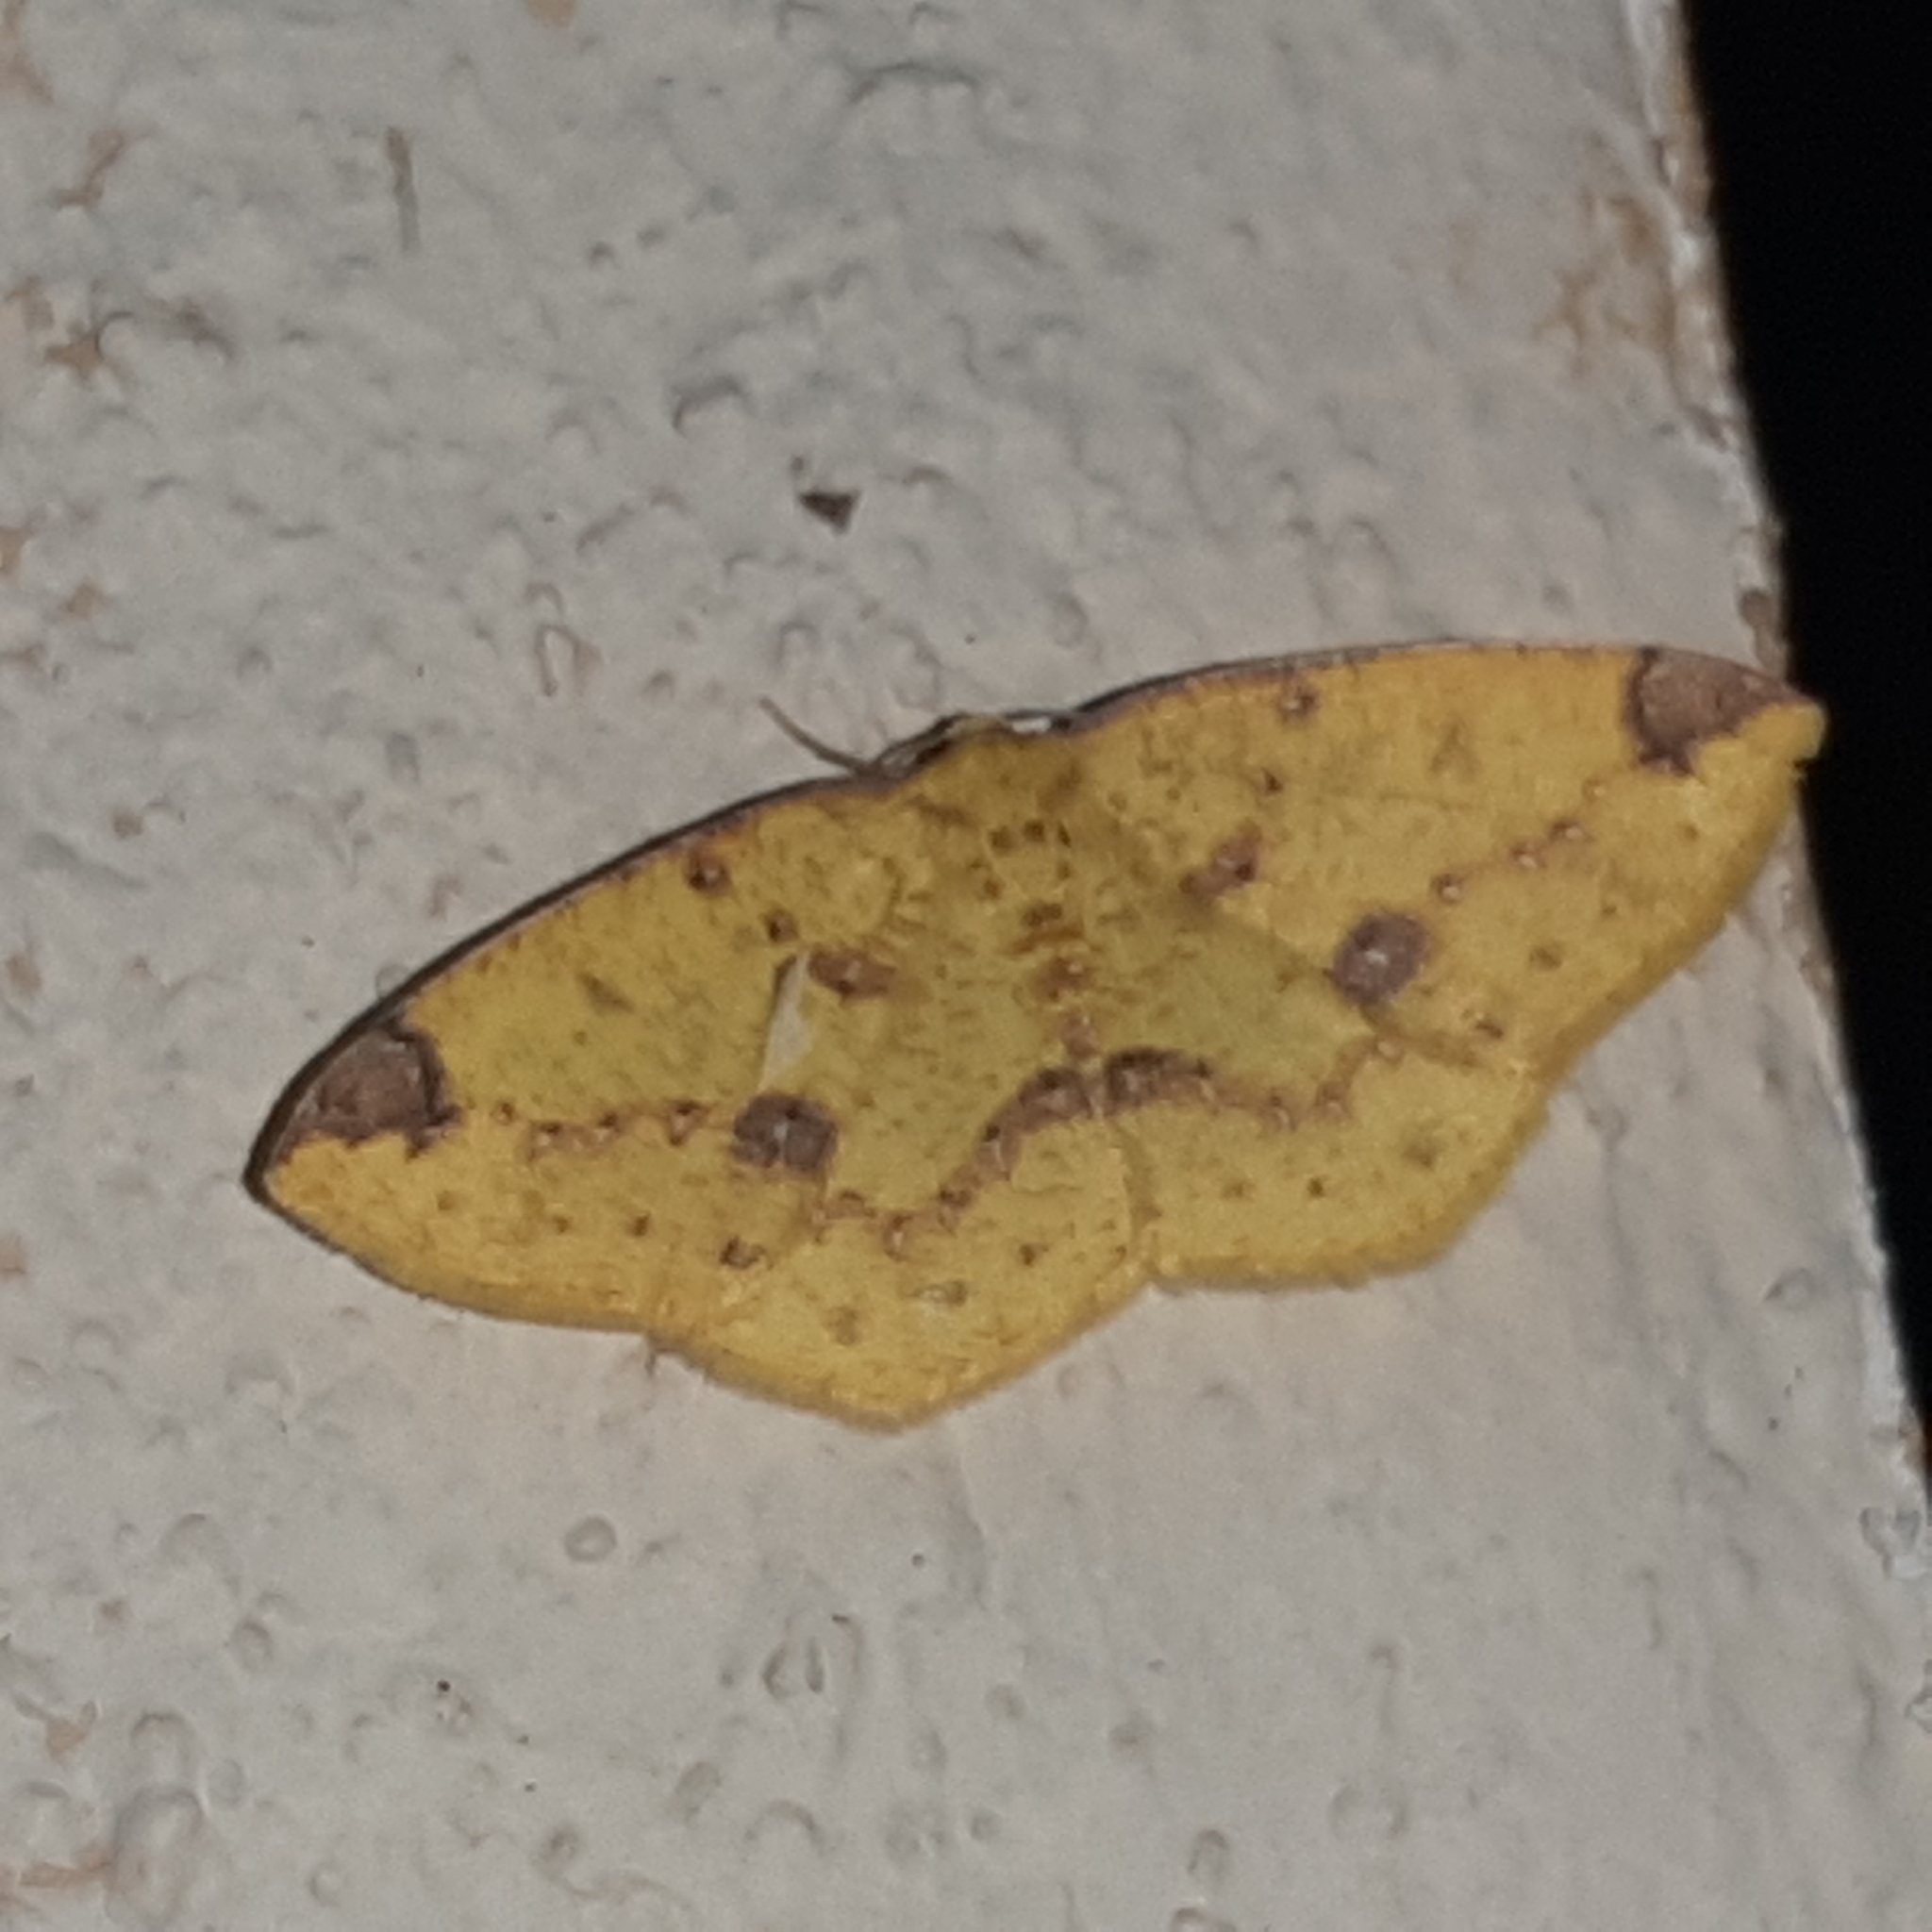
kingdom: Animalia
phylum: Arthropoda
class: Insecta
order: Lepidoptera
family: Geometridae
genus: Periclina
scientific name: Periclina apricaria
